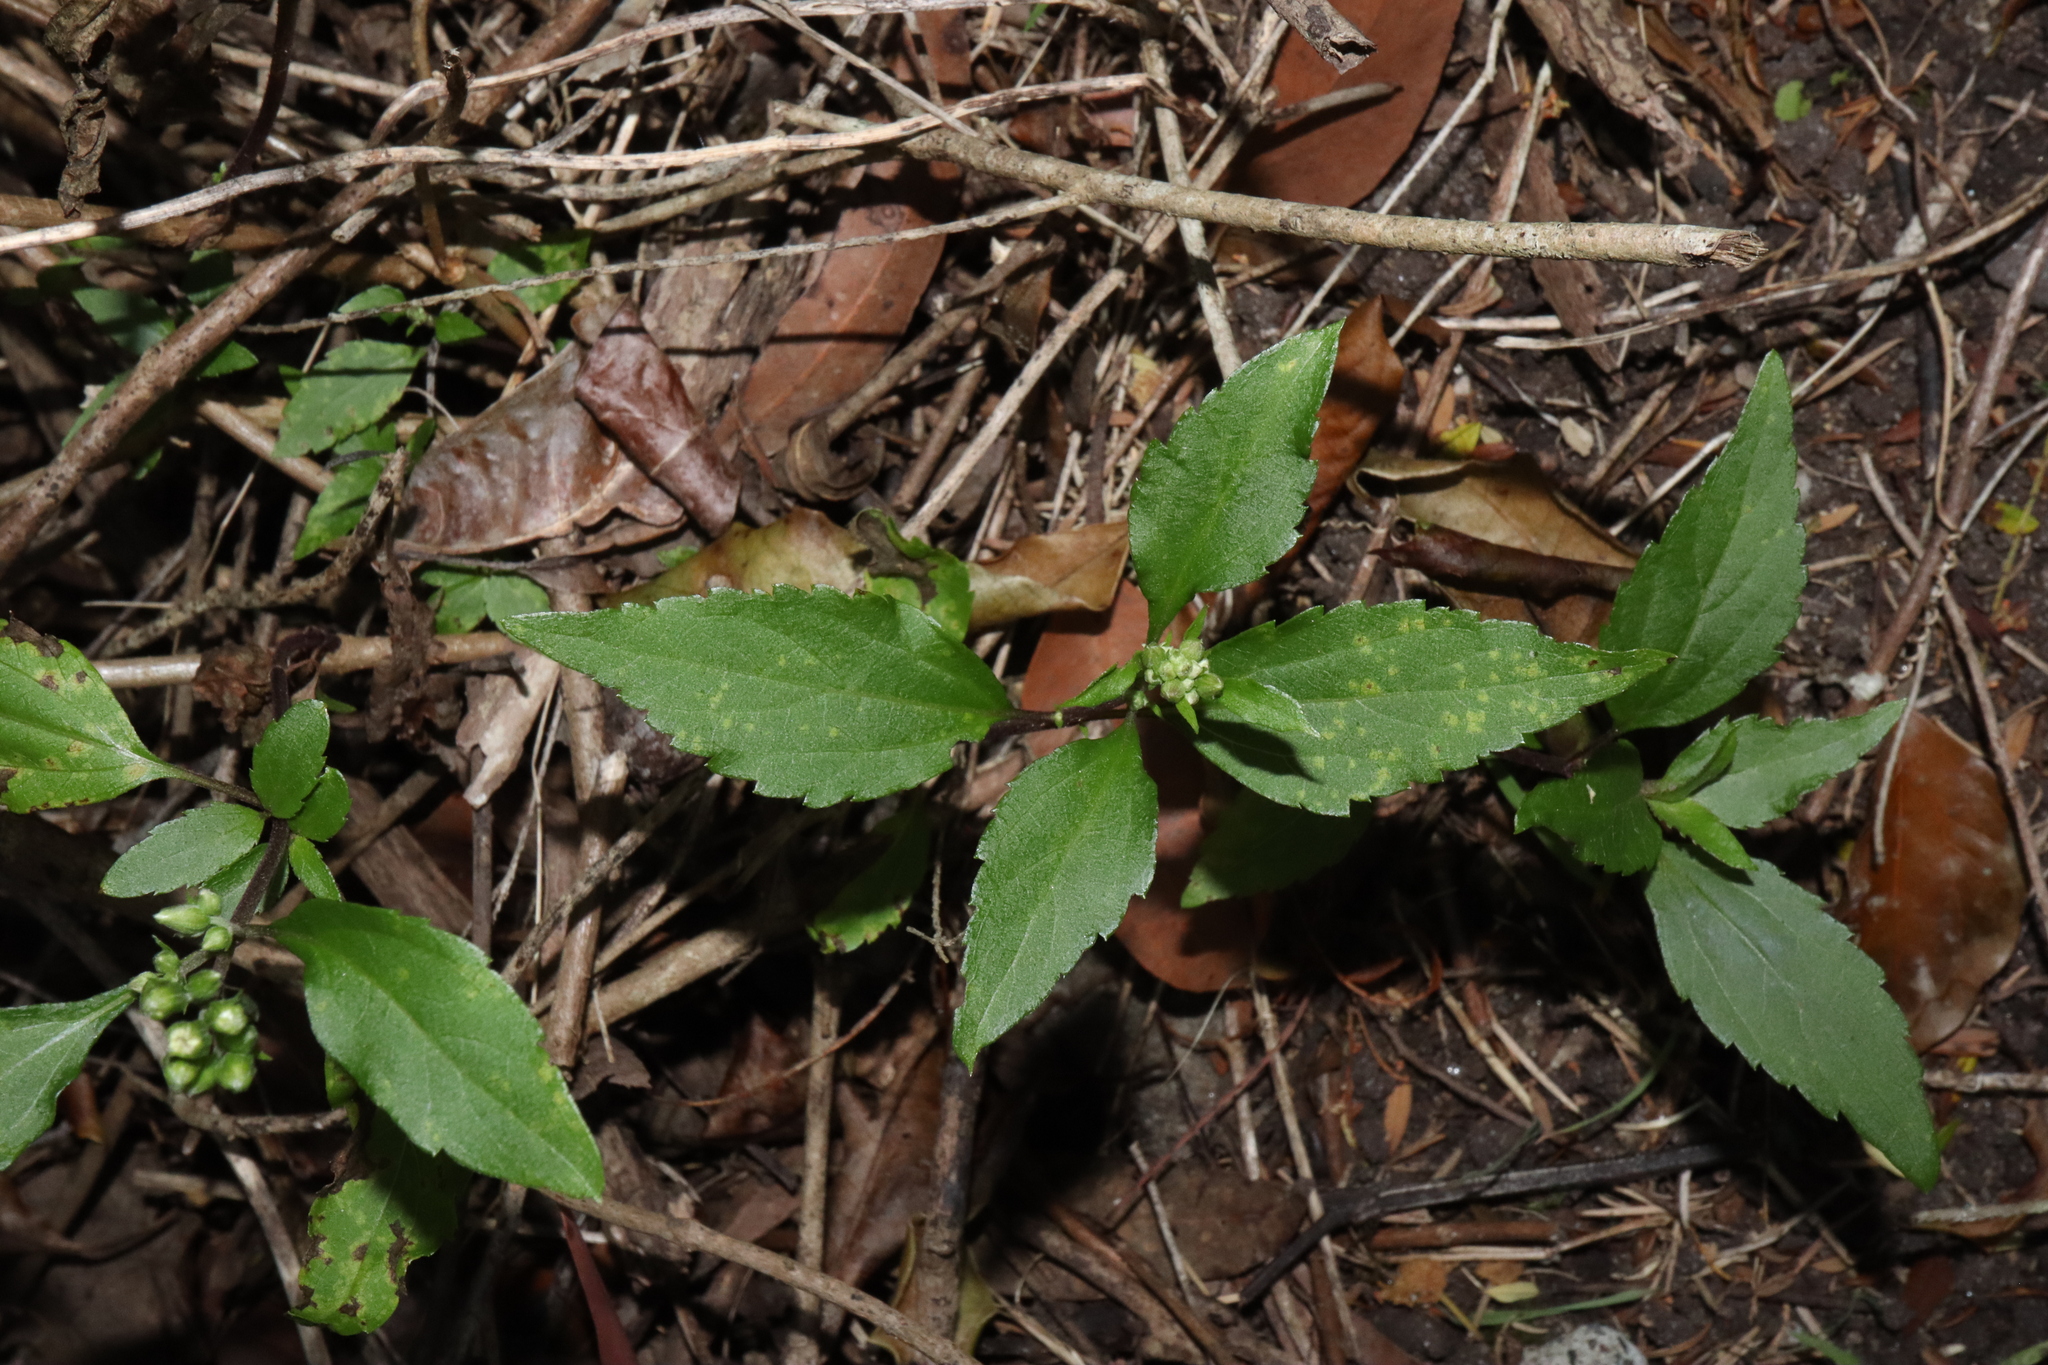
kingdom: Plantae
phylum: Tracheophyta
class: Magnoliopsida
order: Asterales
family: Asteraceae
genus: Ageratina
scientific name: Ageratina riparia
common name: Creeping croftonweed
